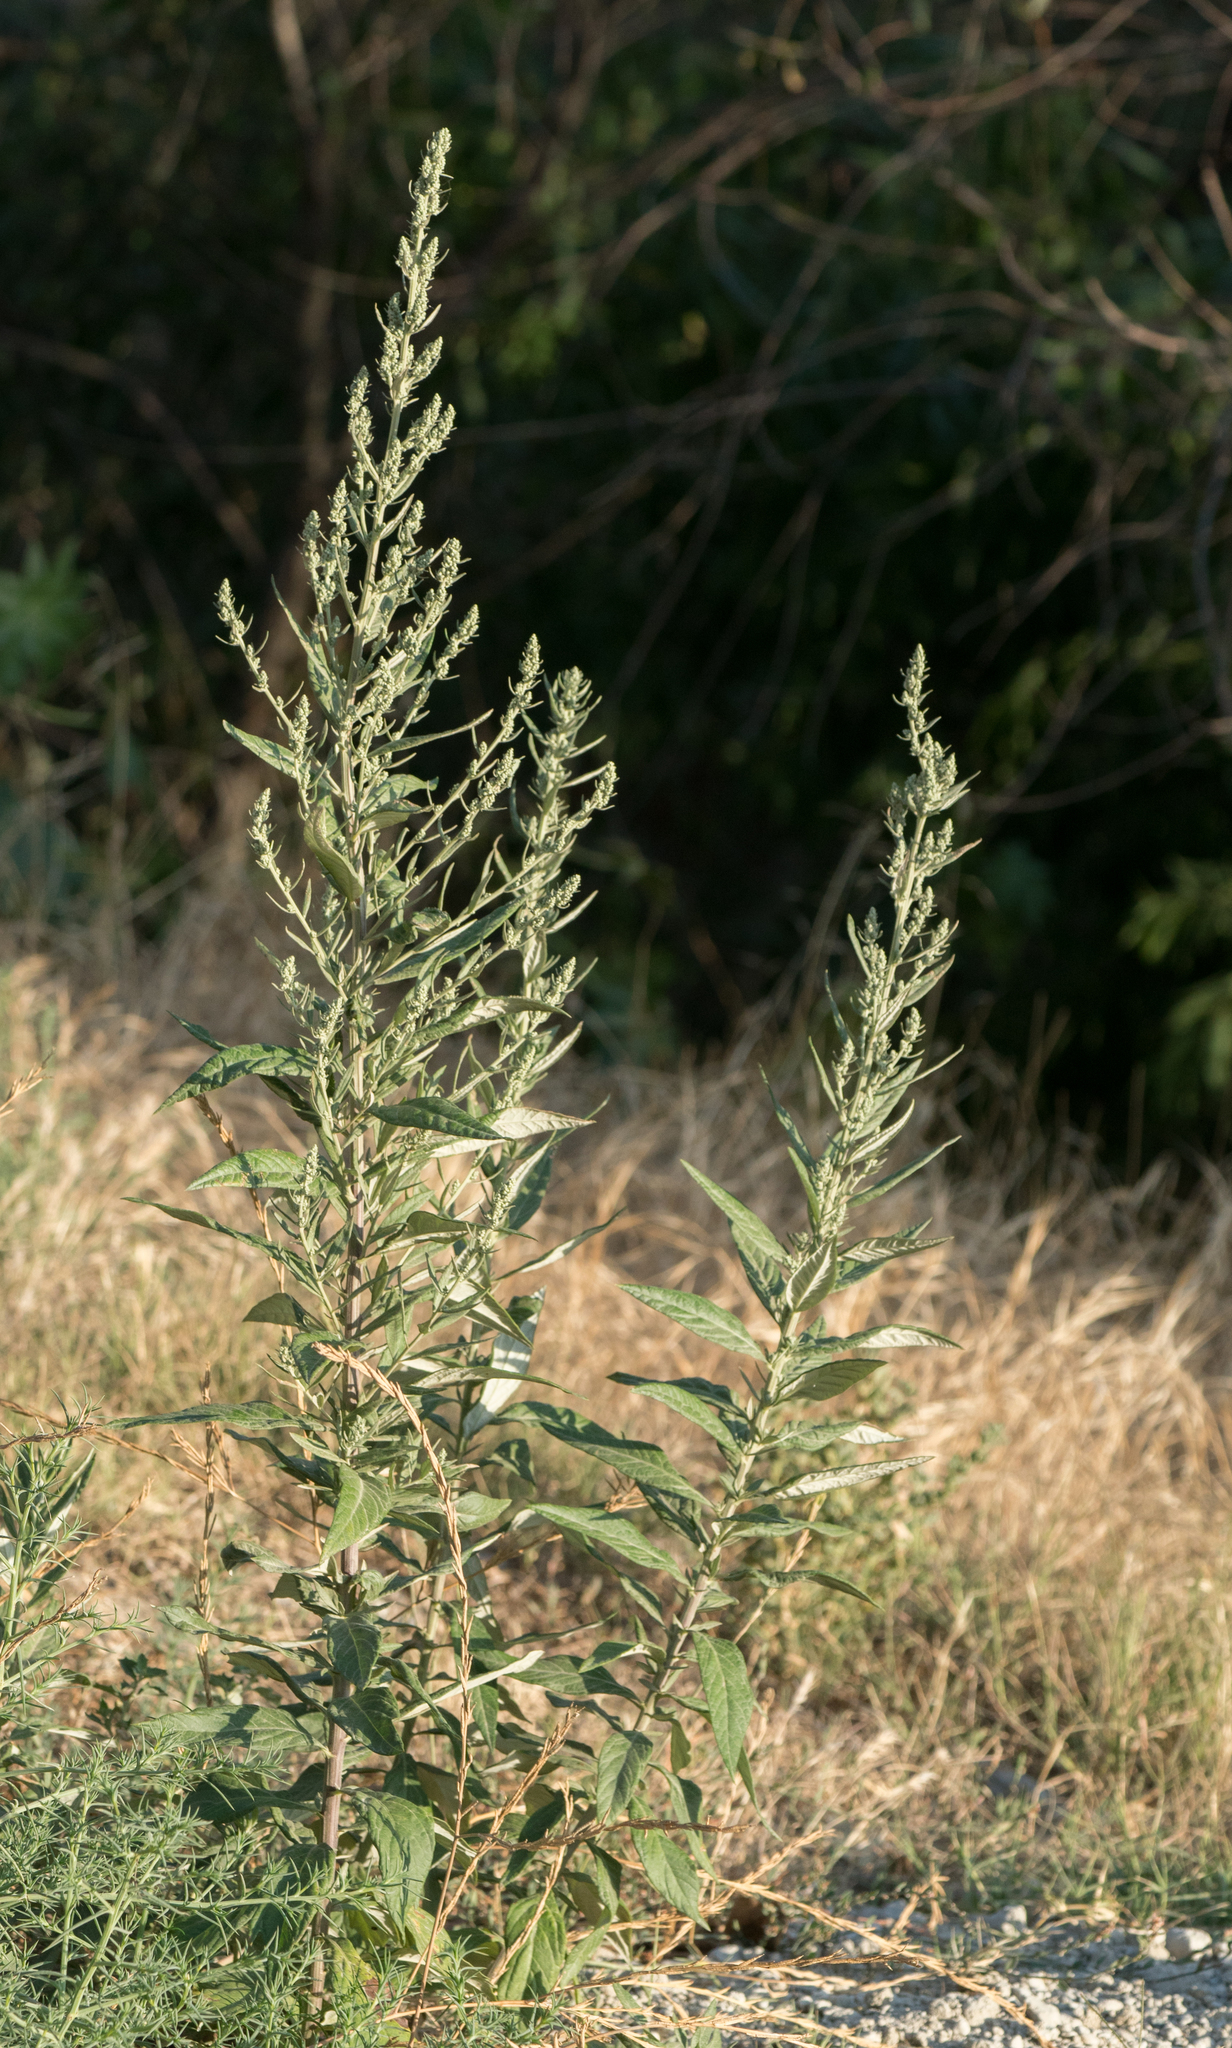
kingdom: Plantae
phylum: Tracheophyta
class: Magnoliopsida
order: Asterales
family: Asteraceae
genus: Artemisia
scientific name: Artemisia douglasiana
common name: Northwest mugwort
